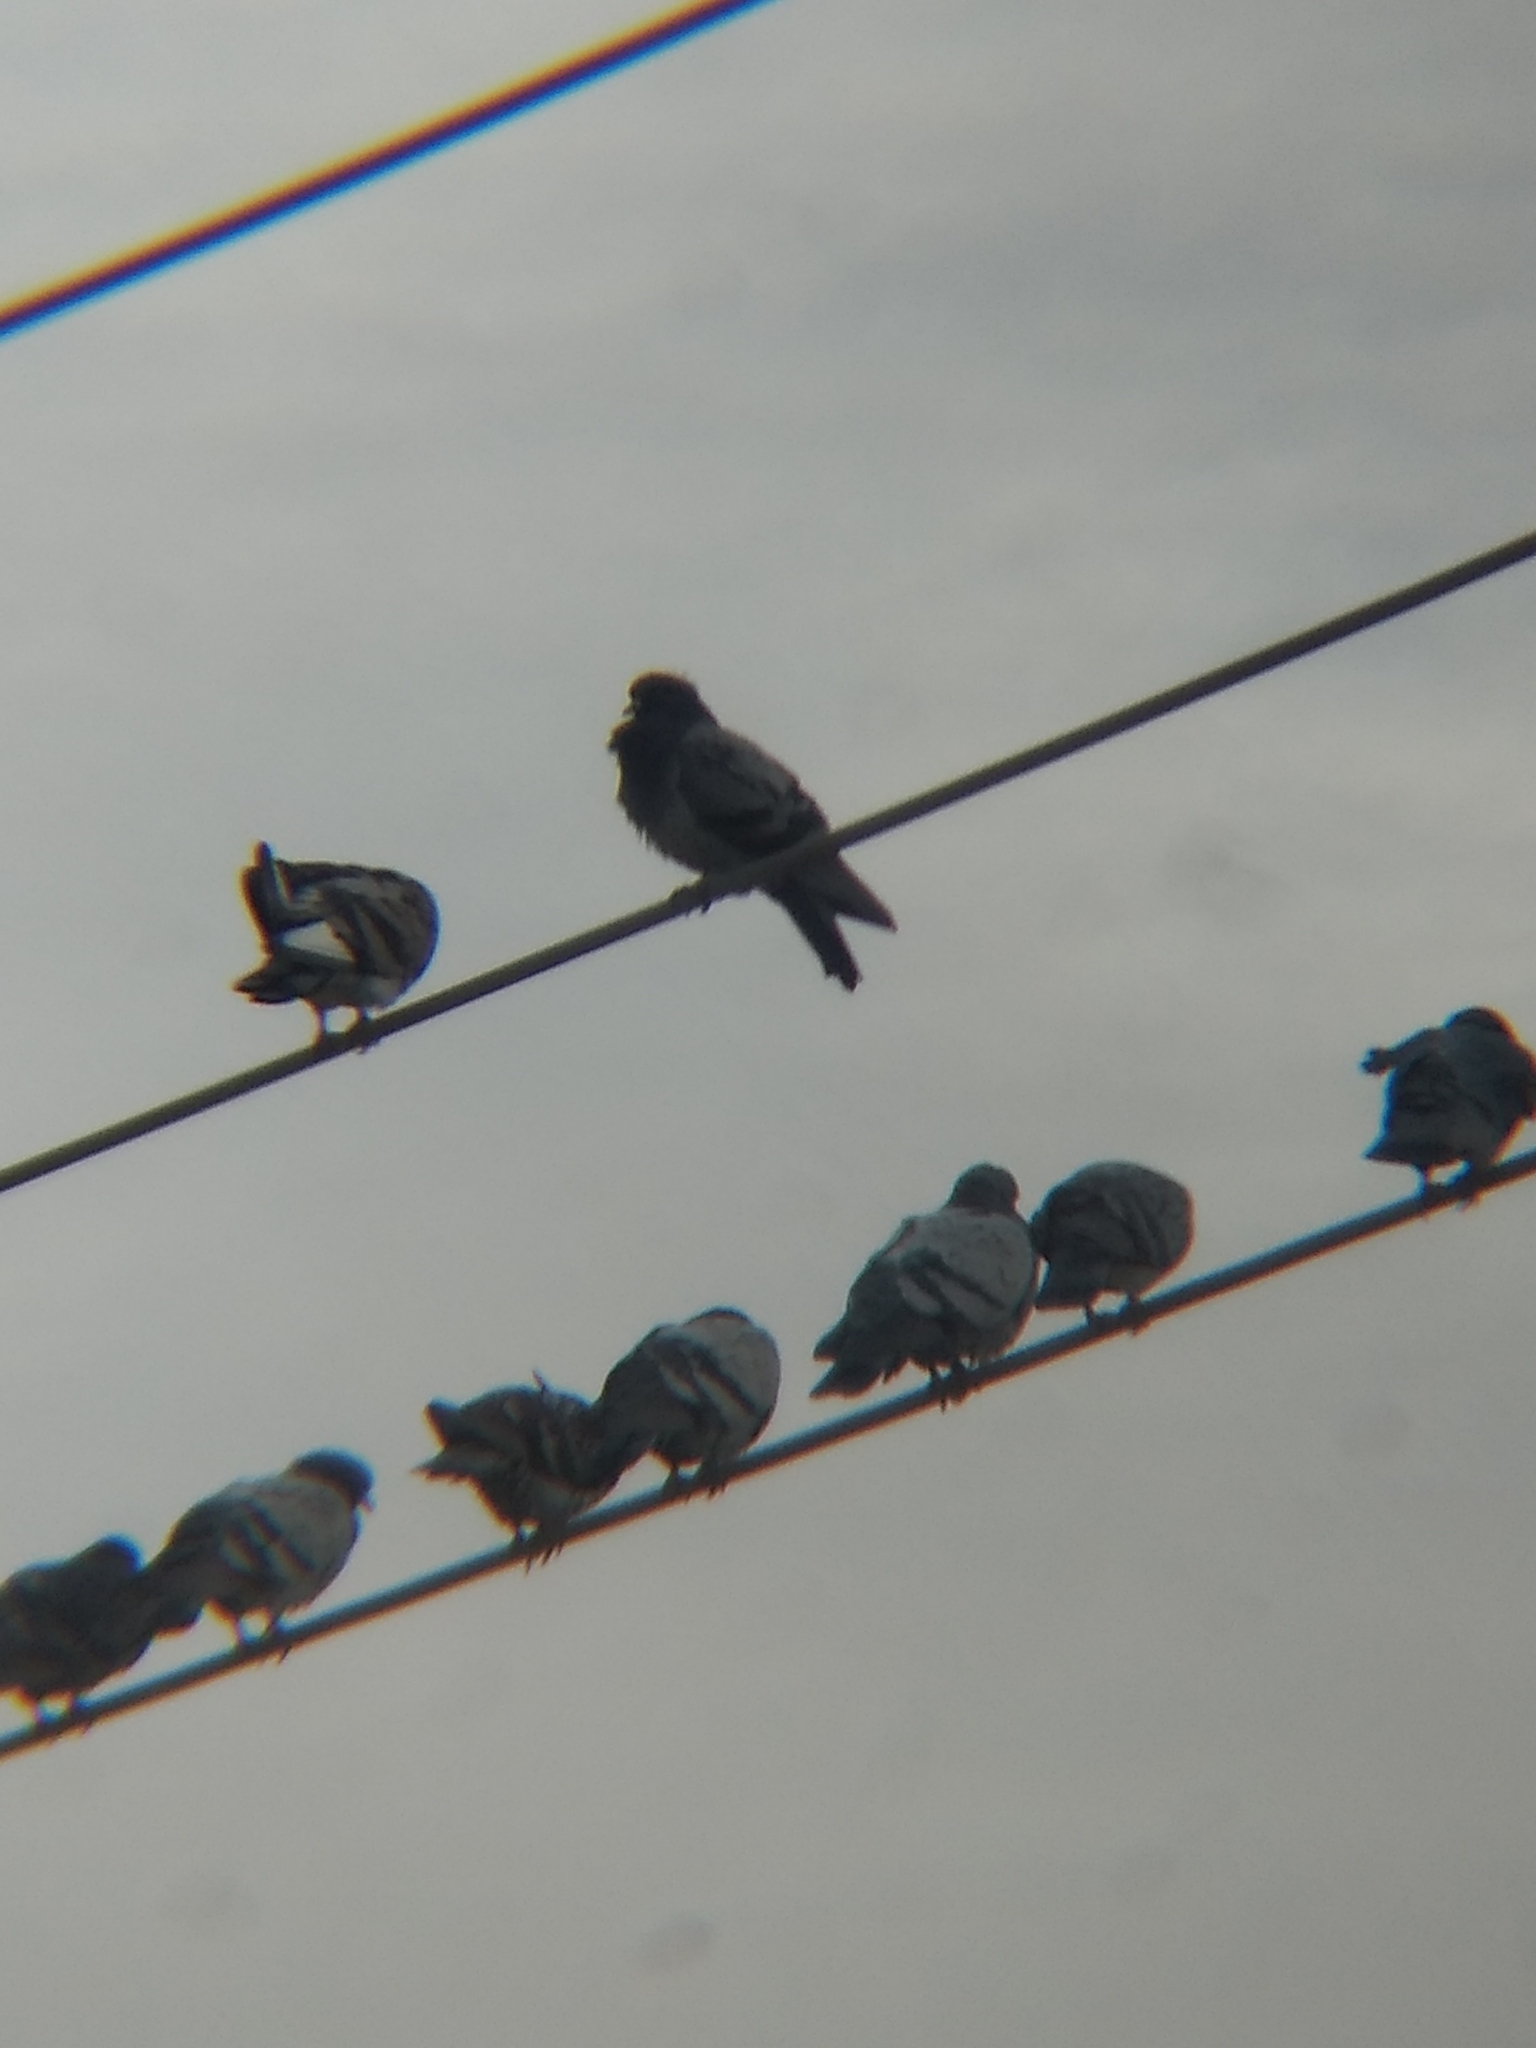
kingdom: Animalia
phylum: Chordata
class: Aves
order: Columbiformes
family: Columbidae
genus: Columba
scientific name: Columba livia
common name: Rock pigeon
